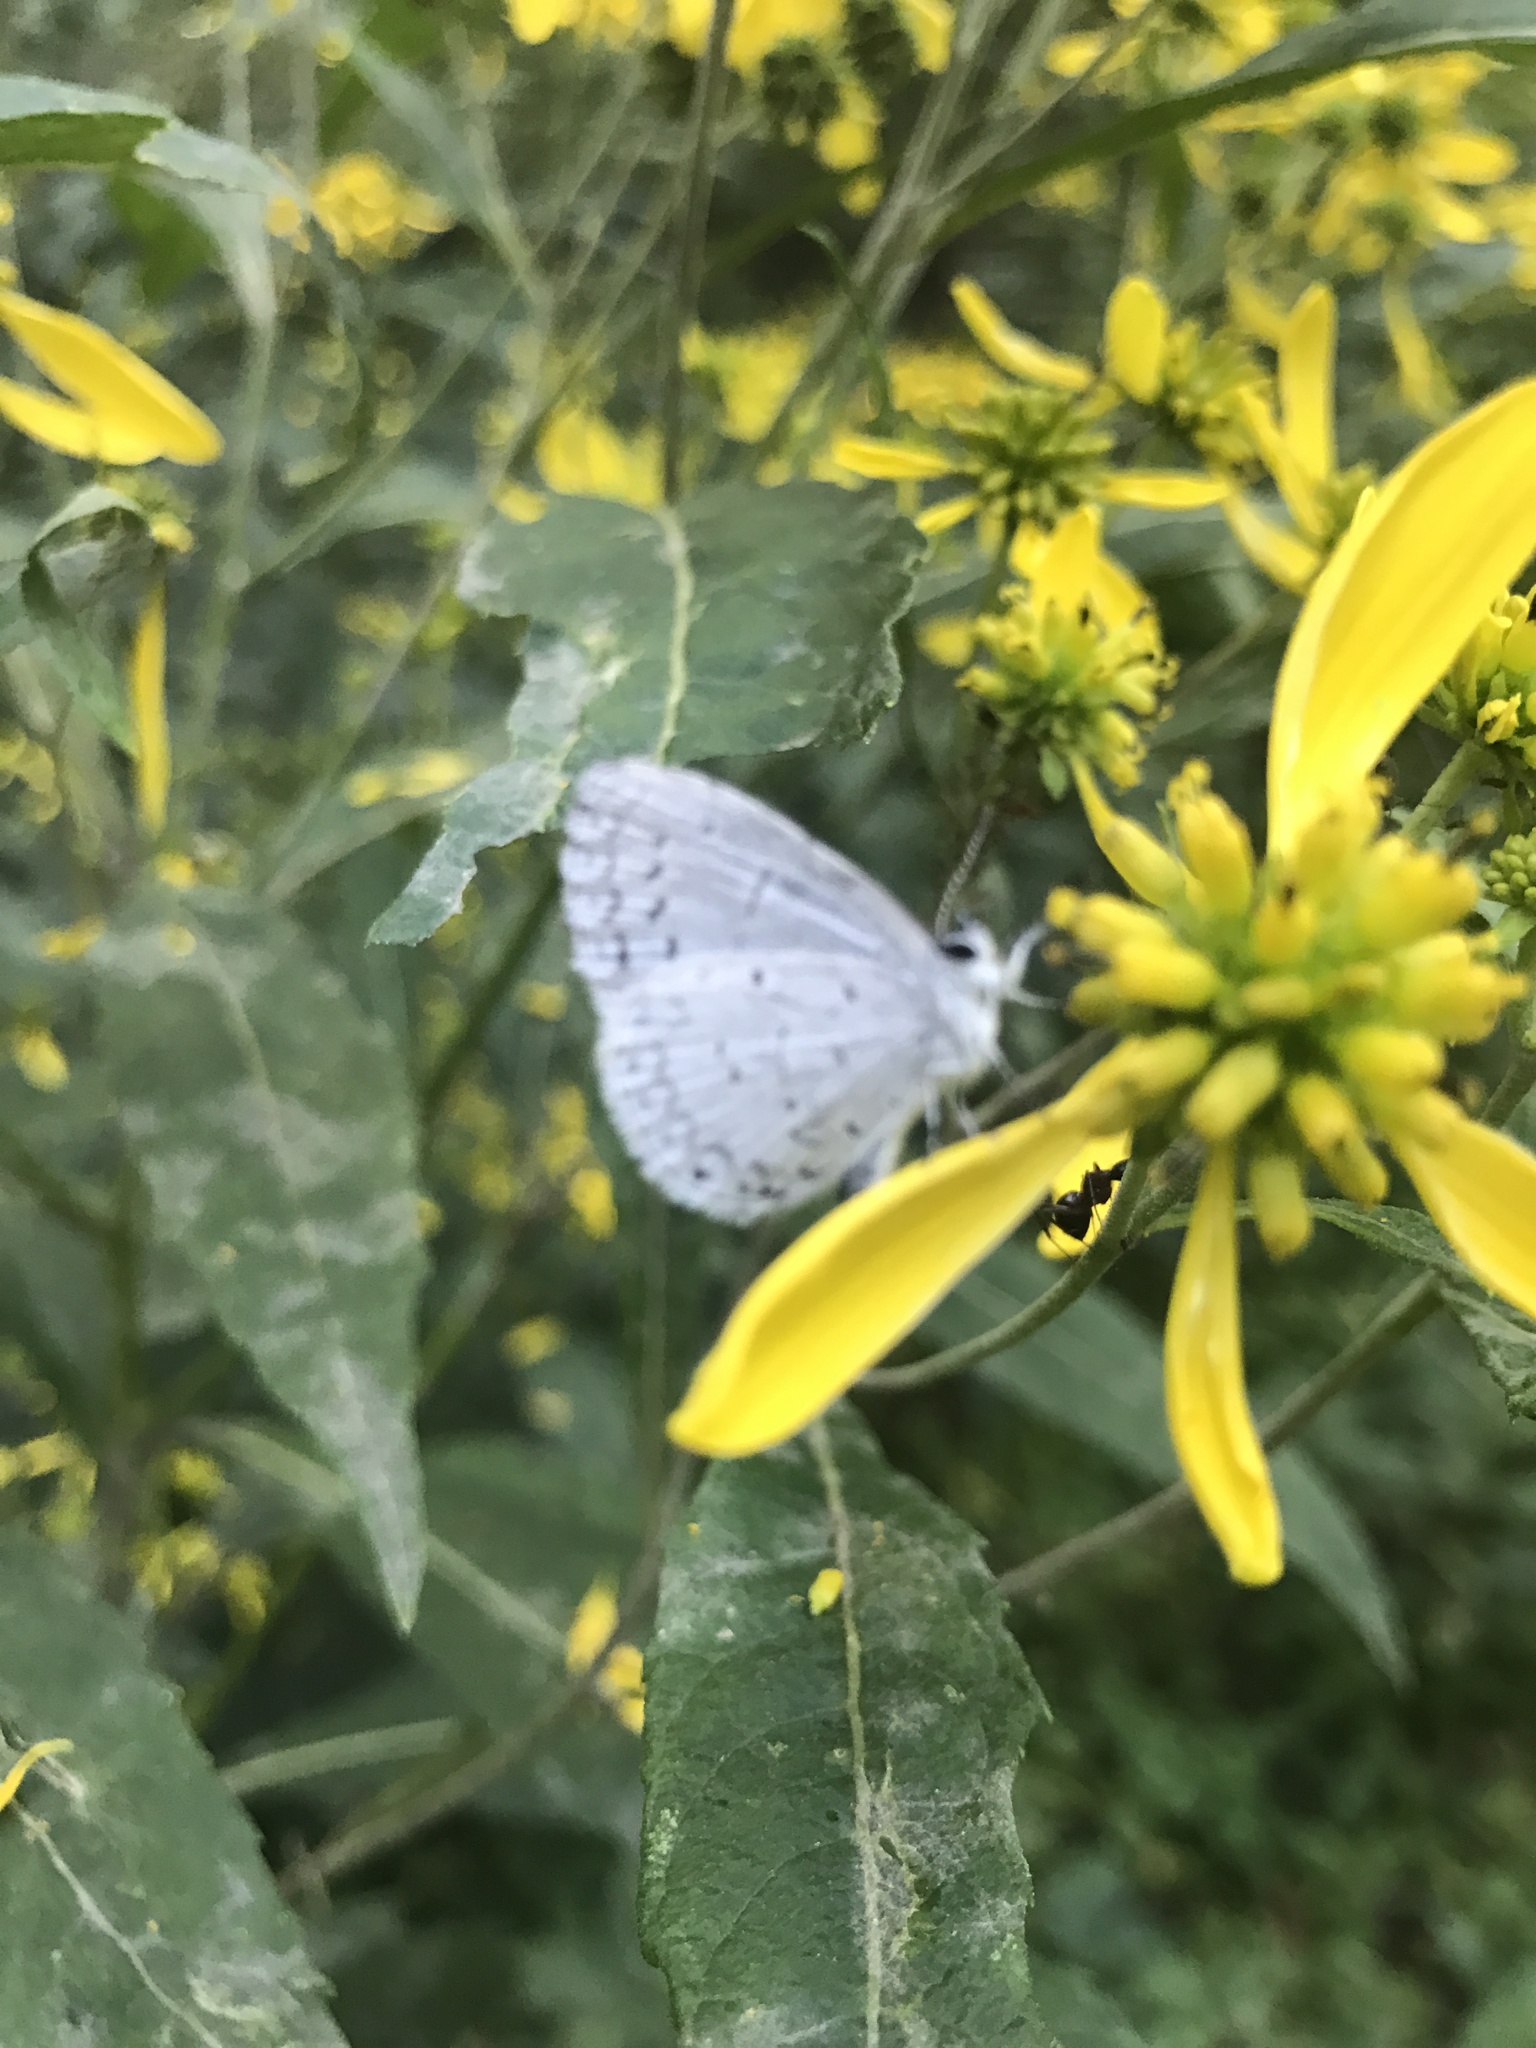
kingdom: Animalia
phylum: Arthropoda
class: Insecta
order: Lepidoptera
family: Lycaenidae
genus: Cyaniris
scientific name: Cyaniris neglecta
